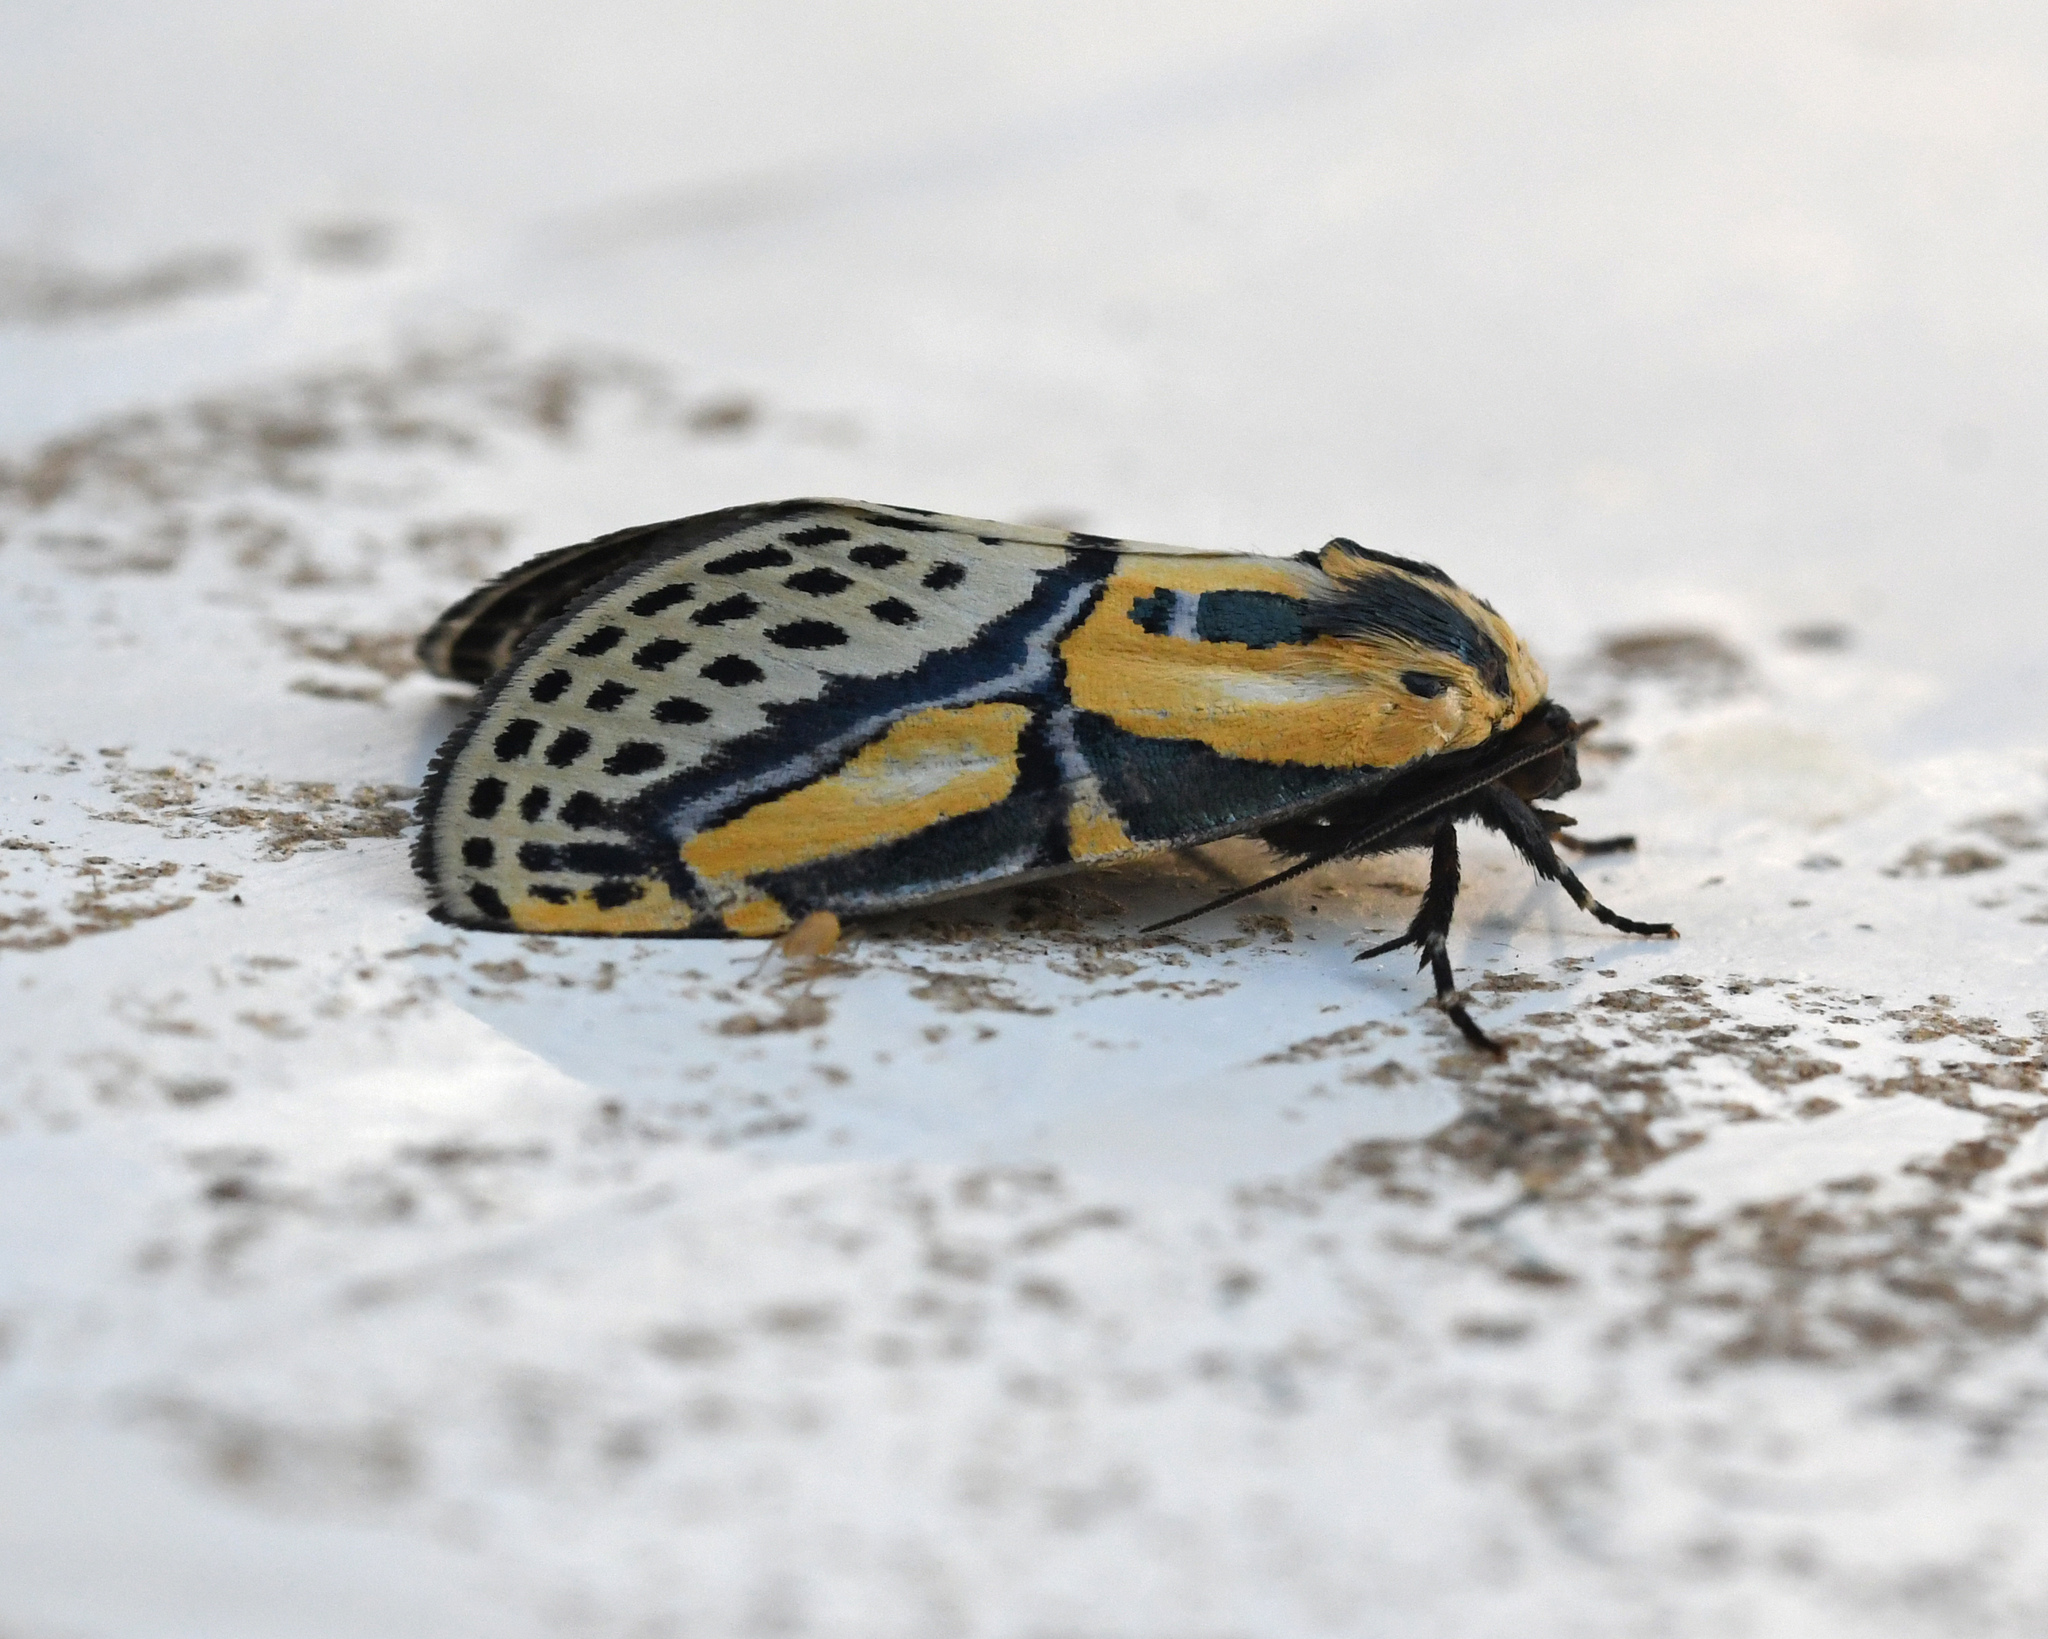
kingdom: Animalia
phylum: Arthropoda
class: Insecta
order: Lepidoptera
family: Erebidae
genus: Diphthera
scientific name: Diphthera festiva
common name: Hieroglyphic moth
